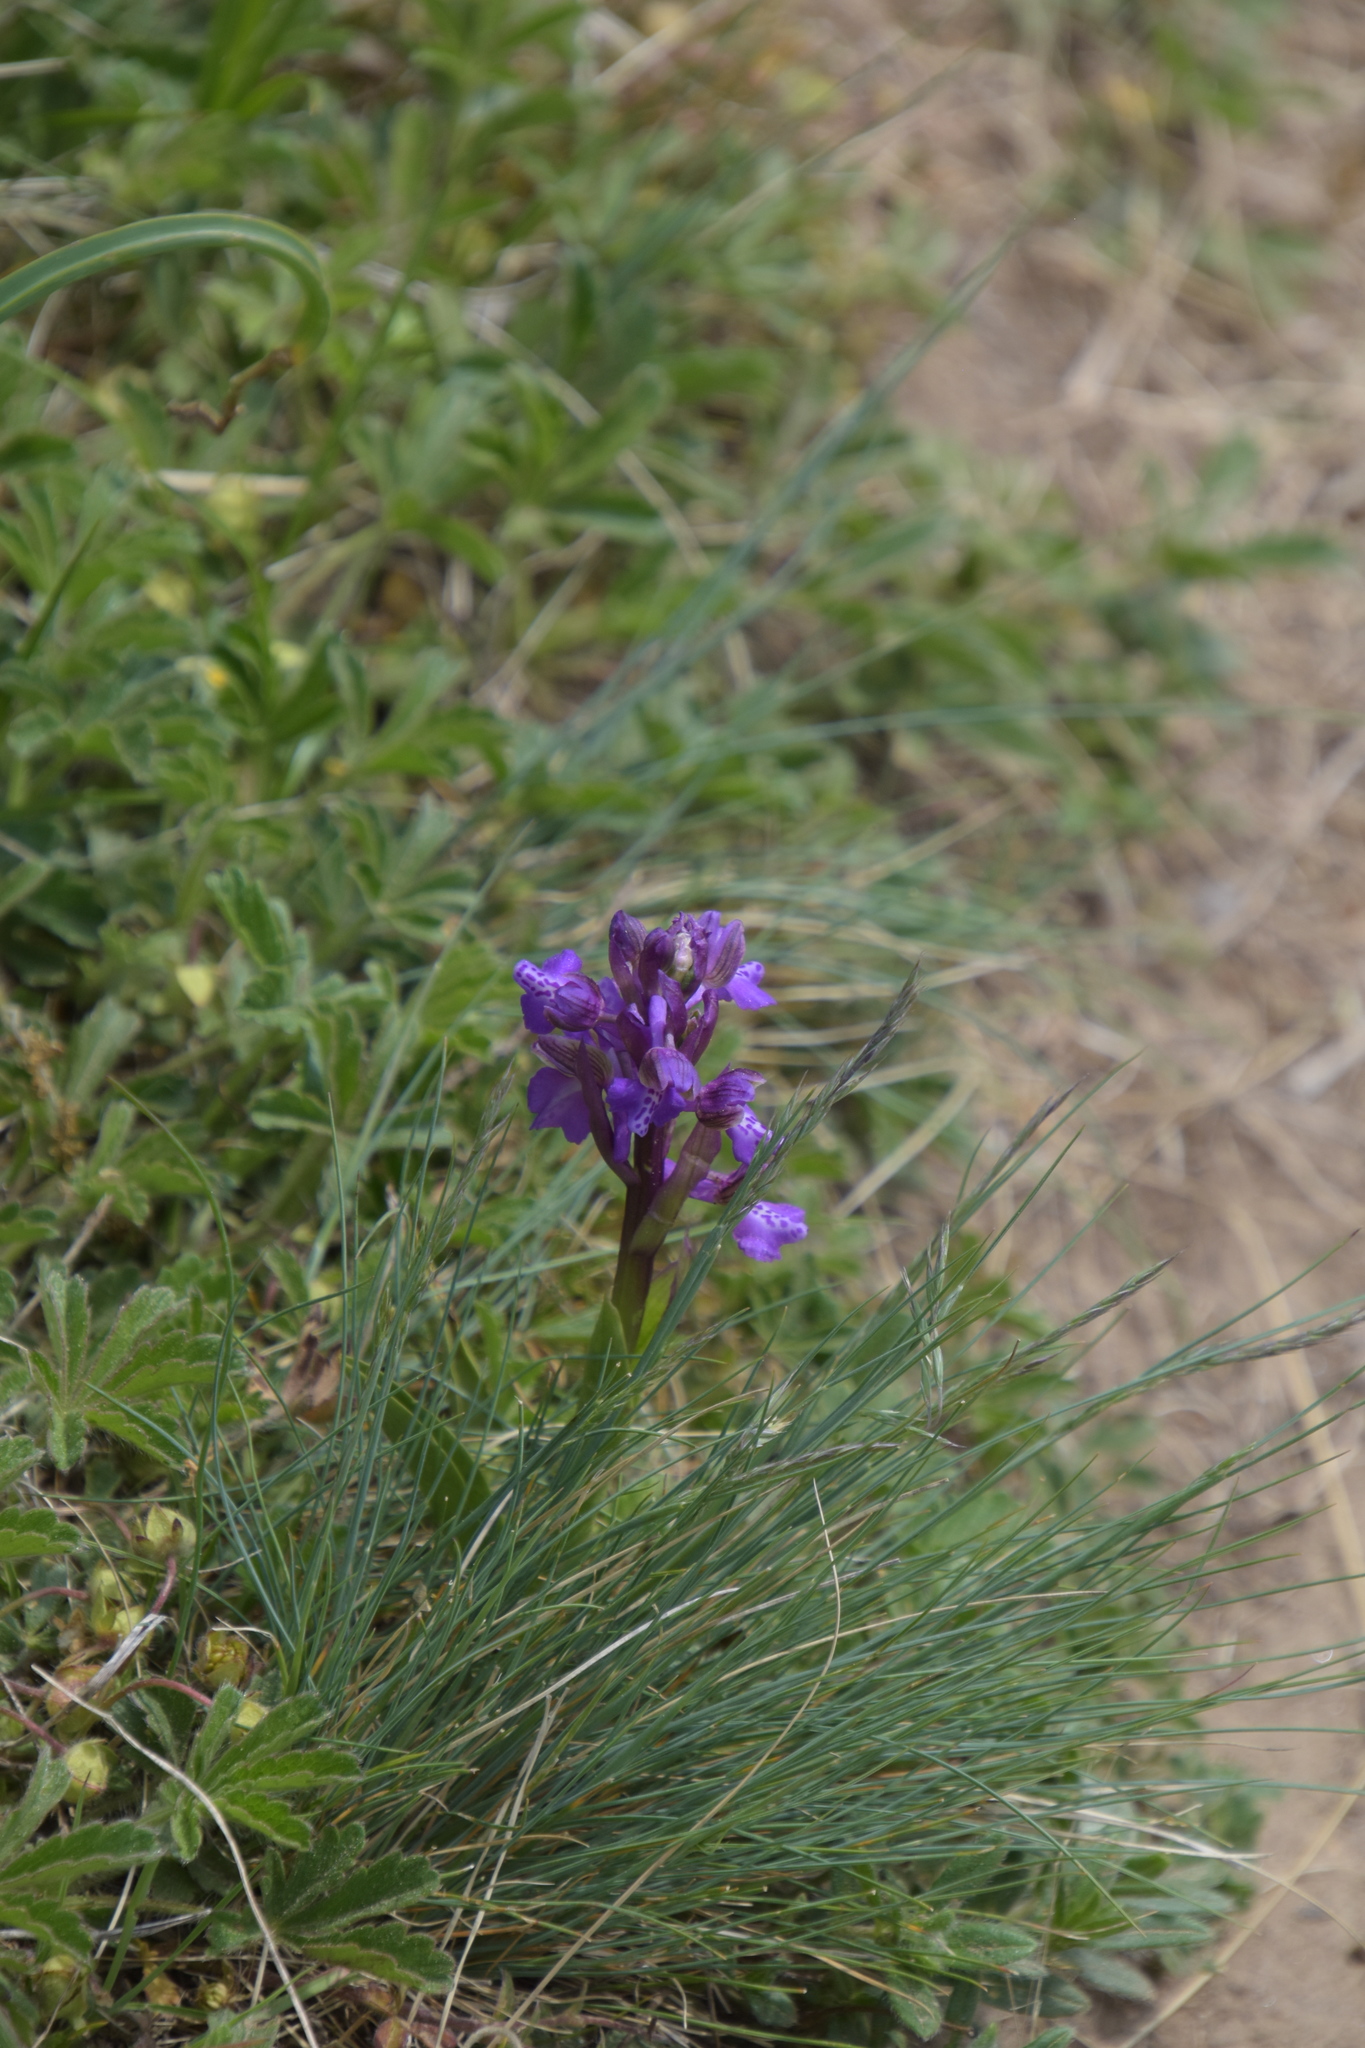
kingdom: Plantae
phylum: Tracheophyta
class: Liliopsida
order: Asparagales
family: Orchidaceae
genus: Anacamptis
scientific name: Anacamptis morio
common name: Green-winged orchid
